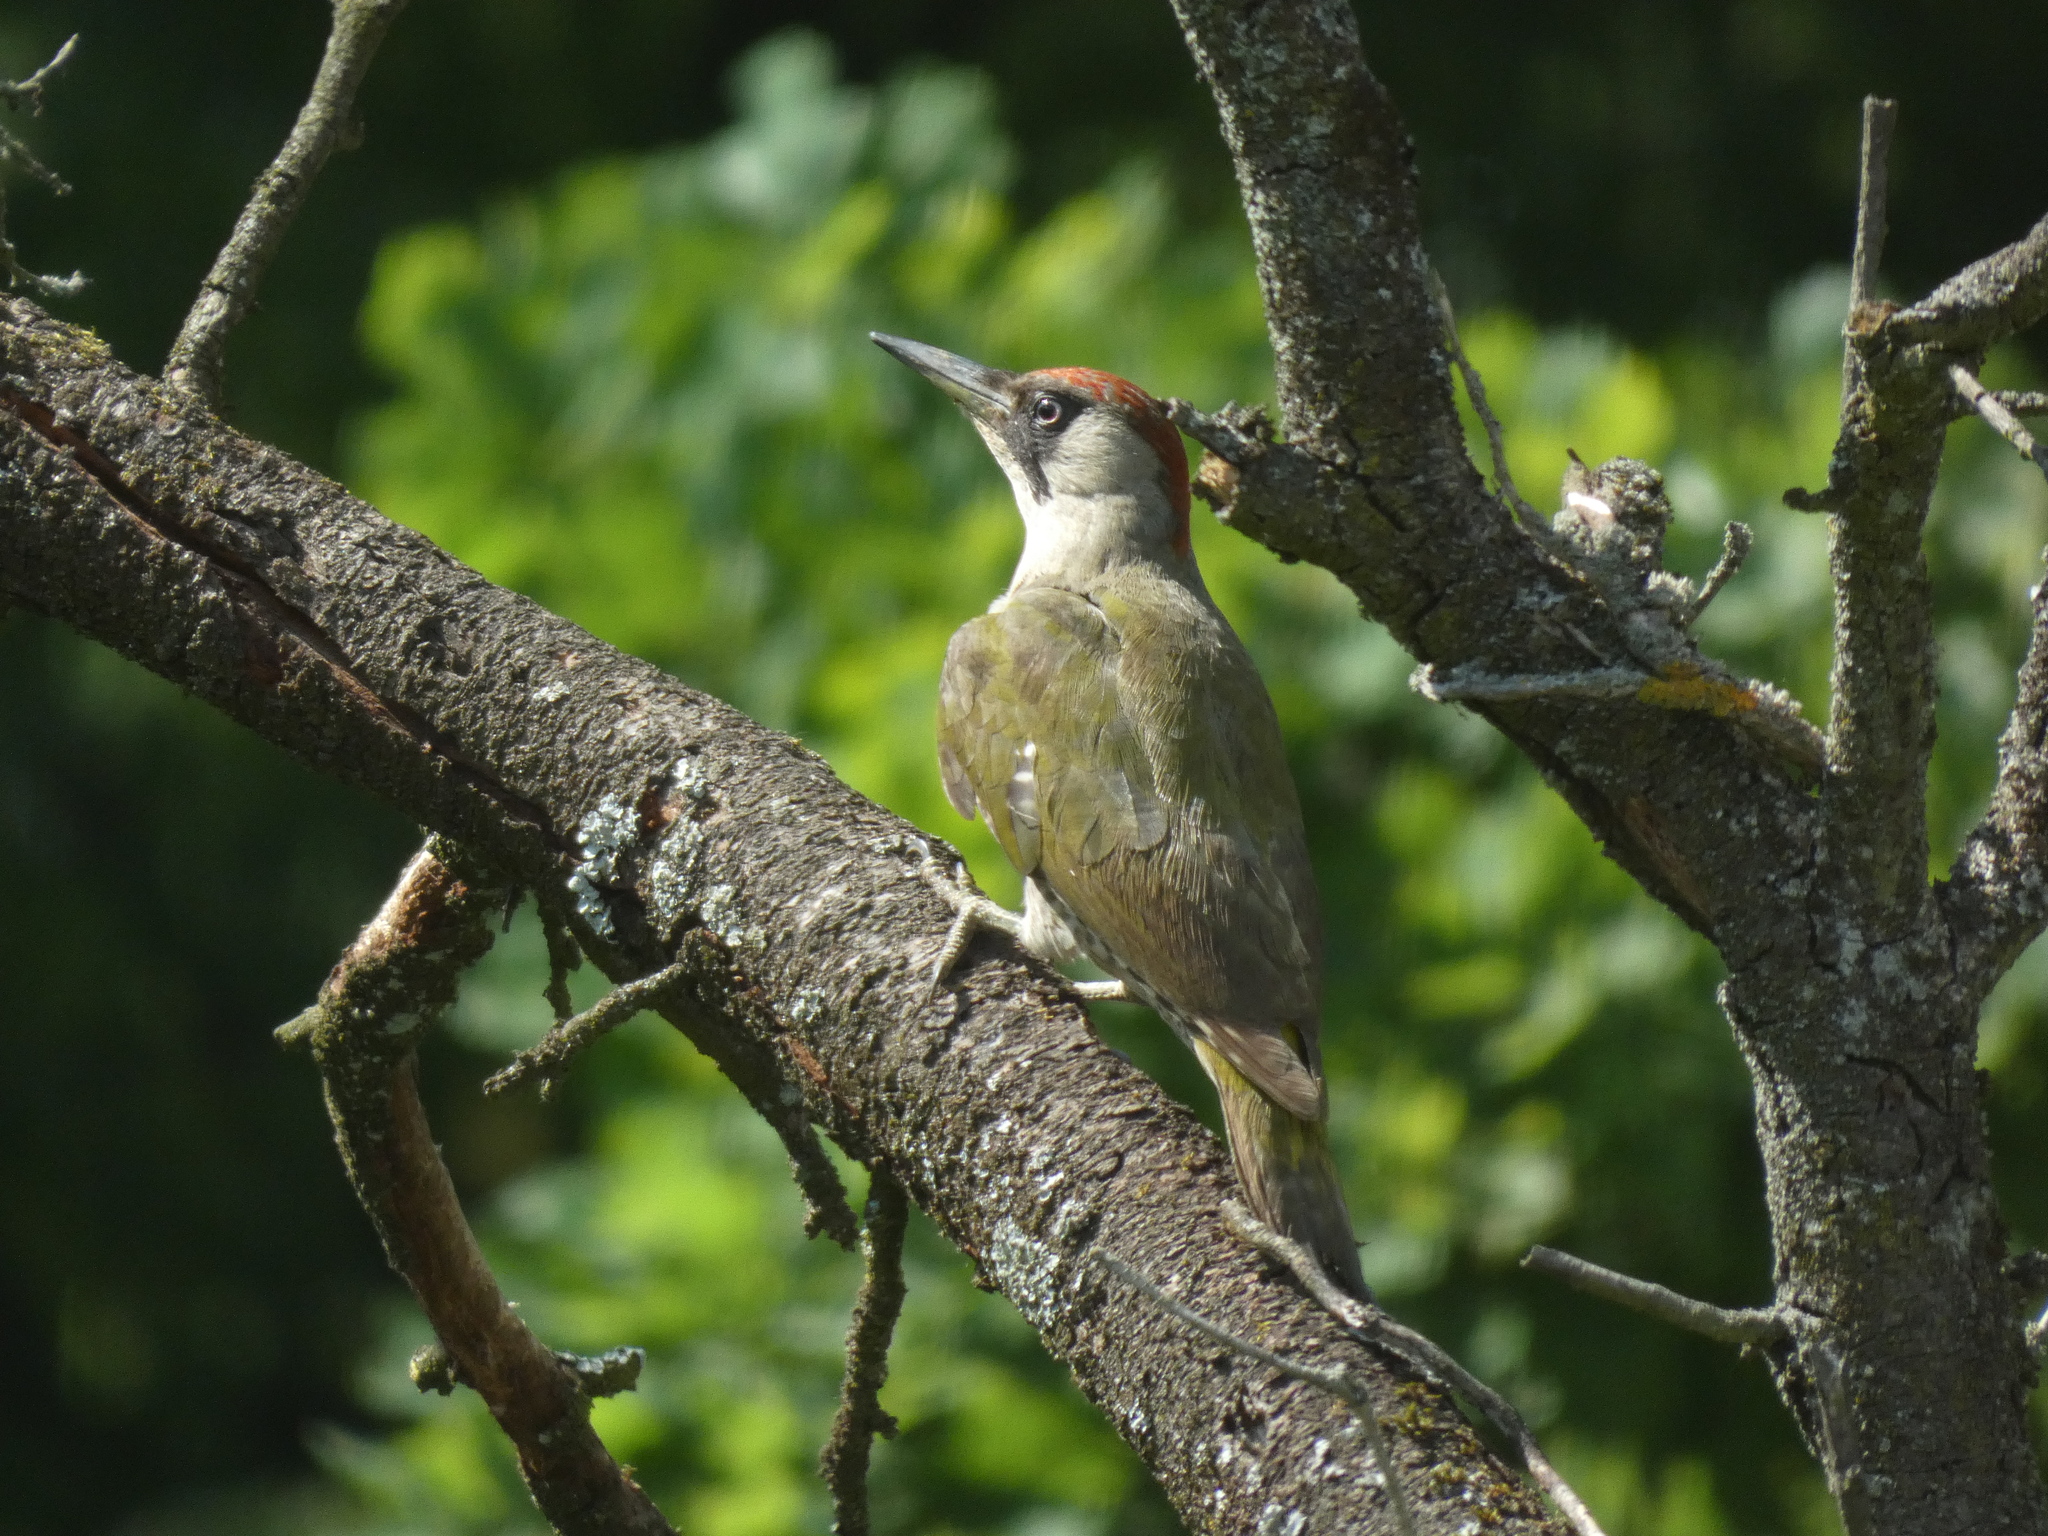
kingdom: Animalia
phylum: Chordata
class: Aves
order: Piciformes
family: Picidae
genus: Picus
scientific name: Picus viridis
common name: European green woodpecker
